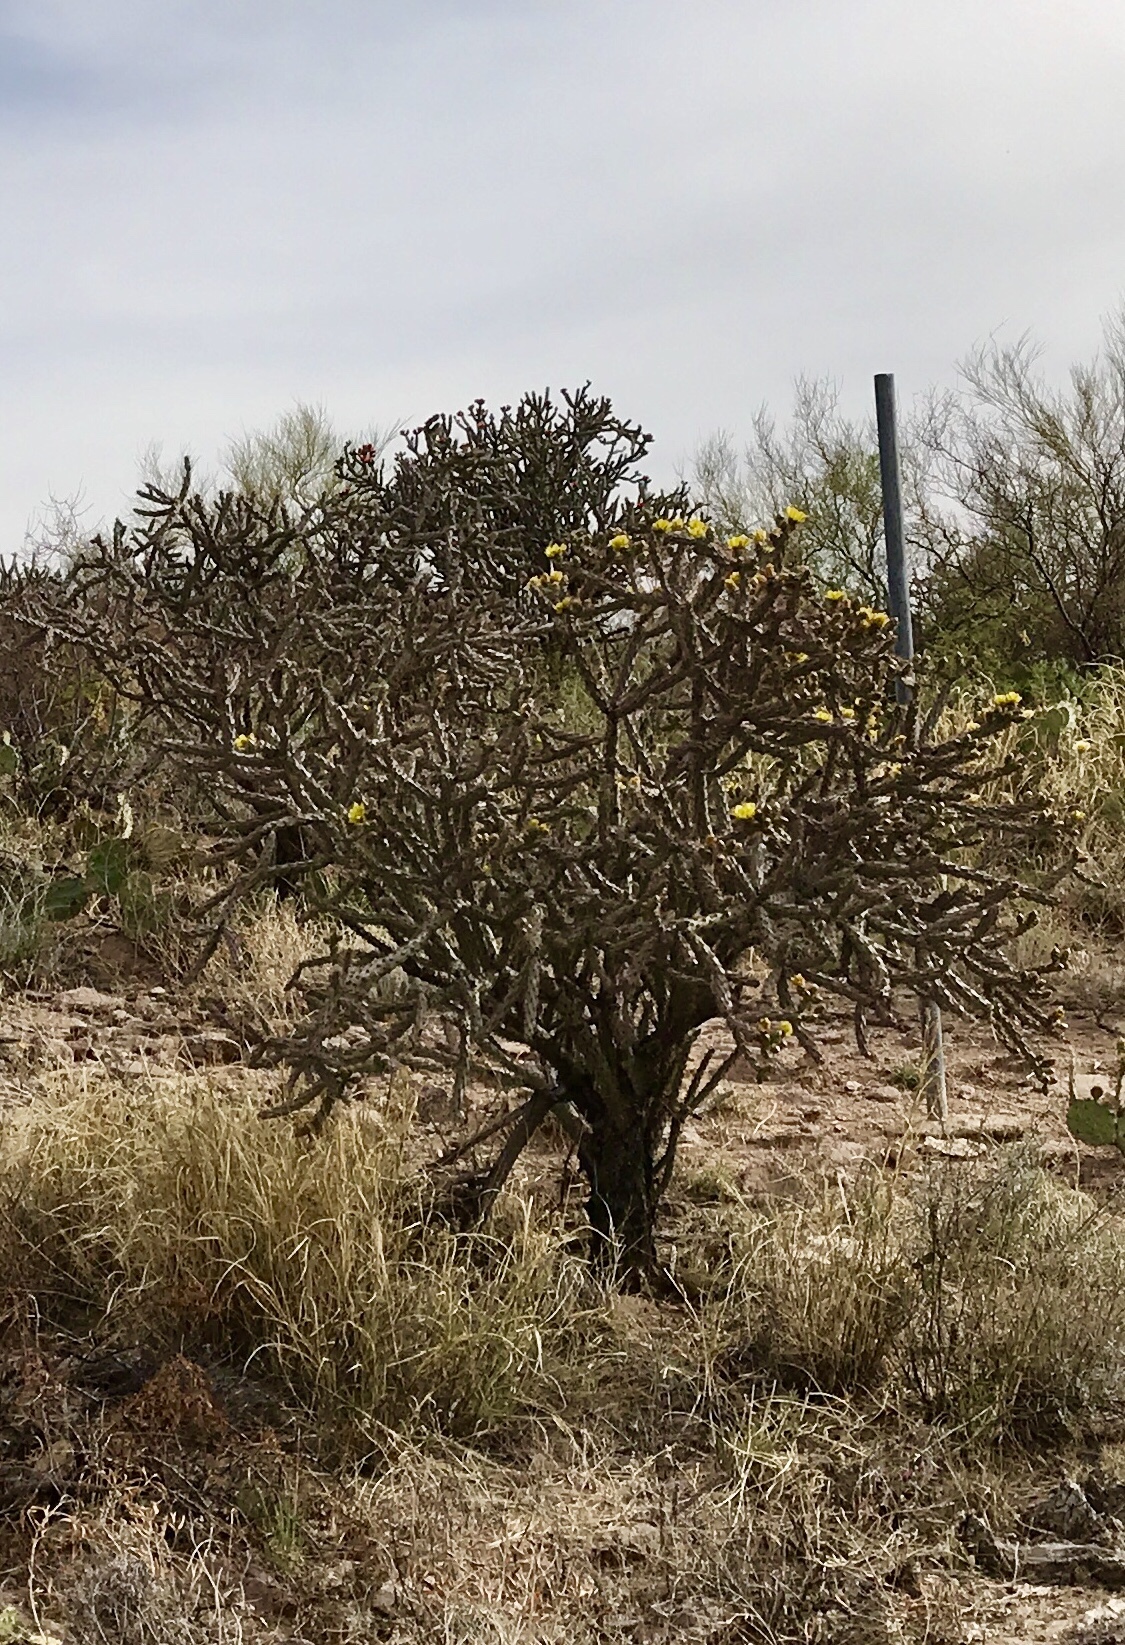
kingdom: Plantae
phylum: Tracheophyta
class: Magnoliopsida
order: Caryophyllales
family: Cactaceae
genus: Cylindropuntia
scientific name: Cylindropuntia thurberi
